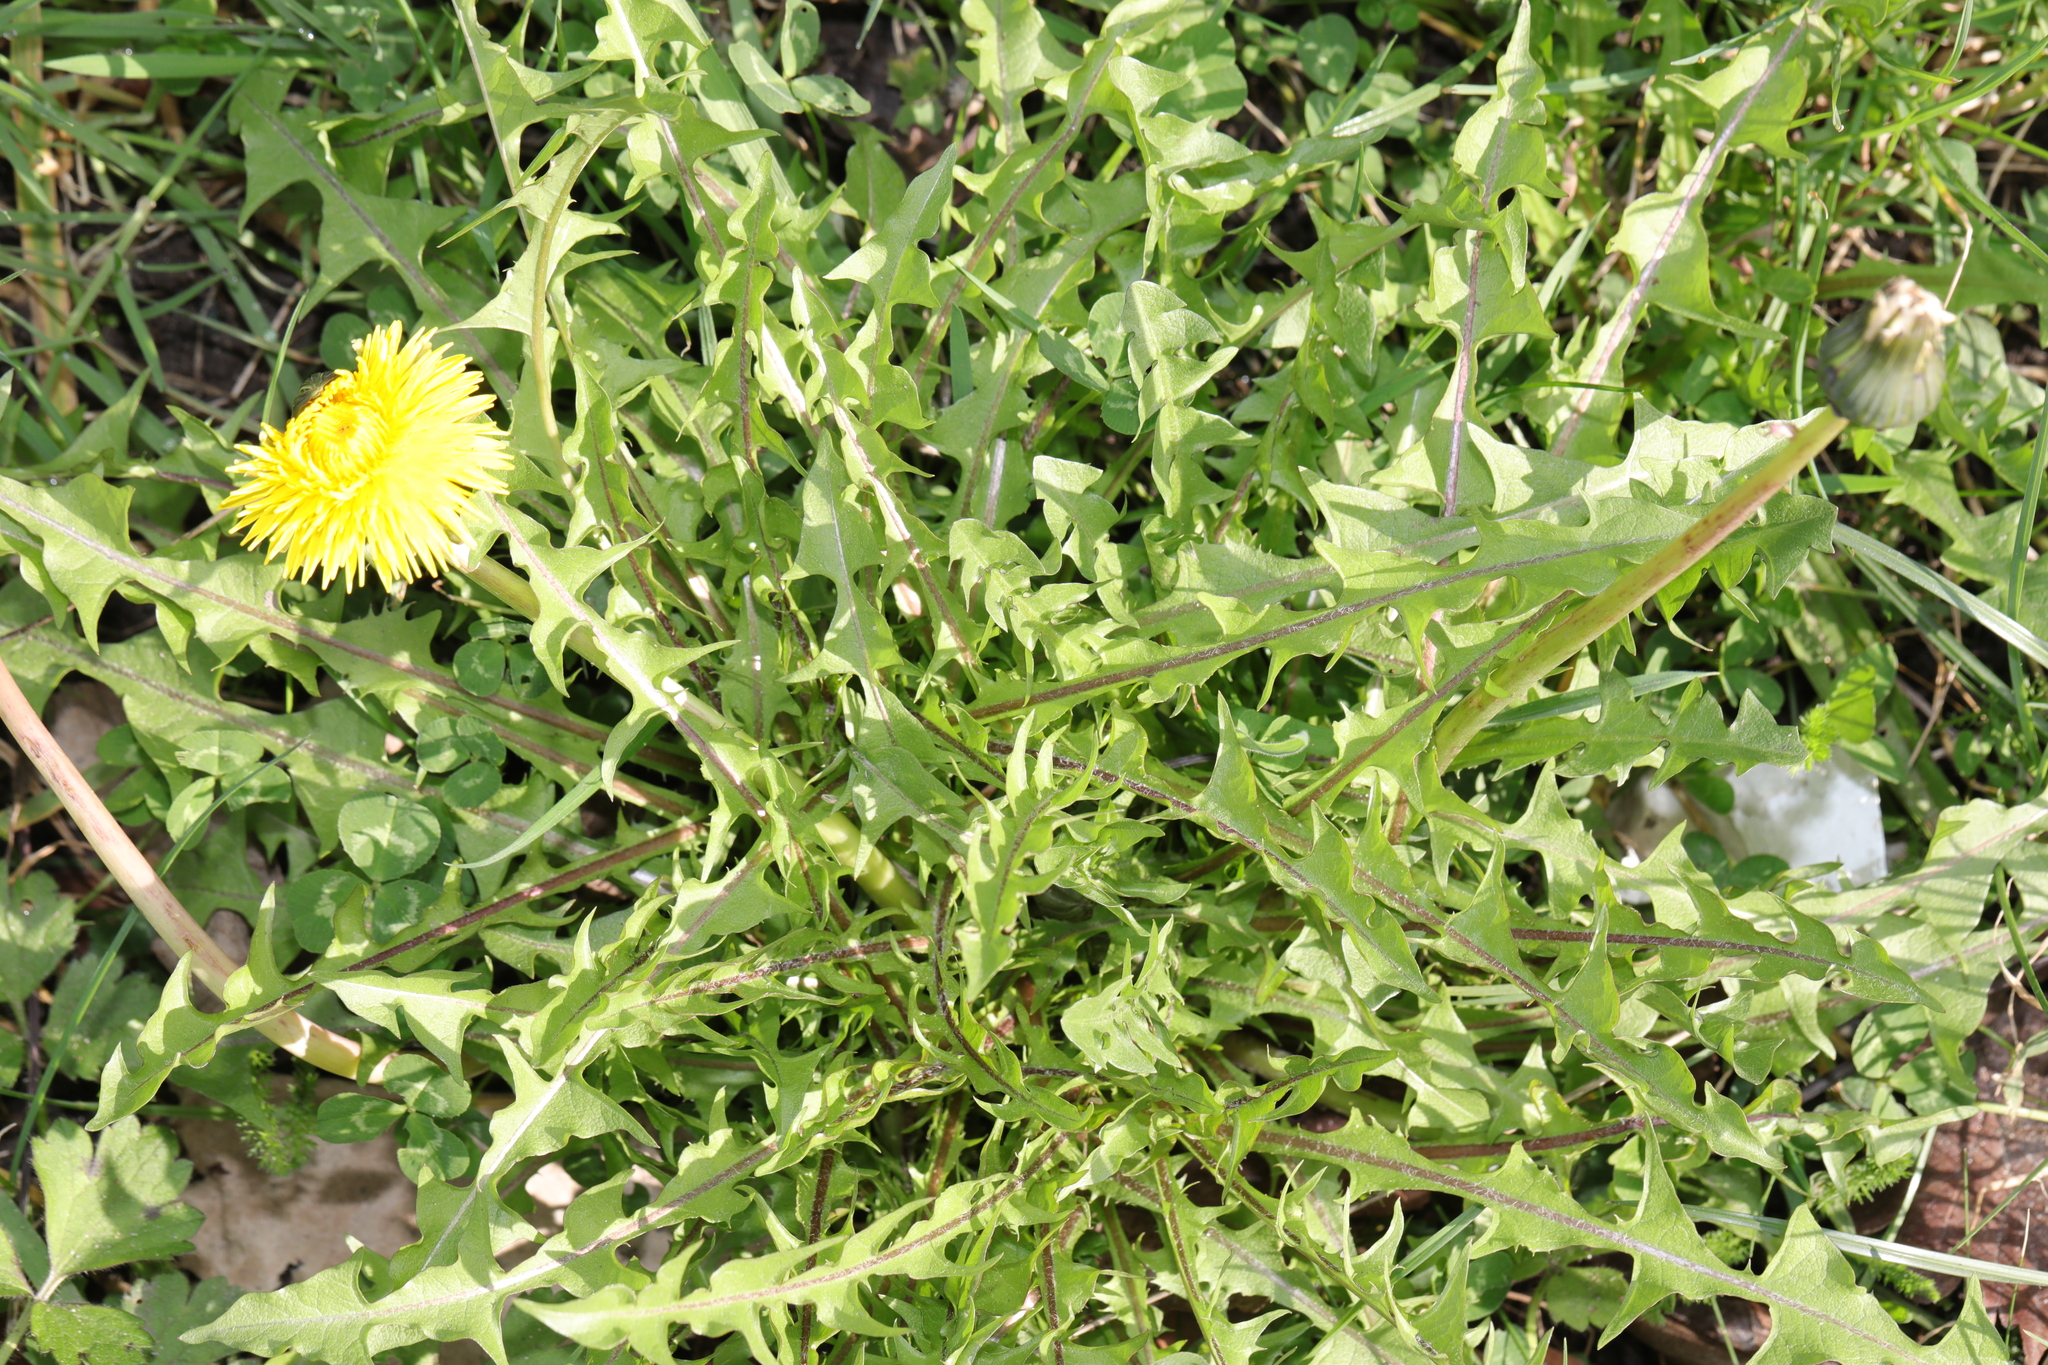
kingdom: Plantae
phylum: Tracheophyta
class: Magnoliopsida
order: Asterales
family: Asteraceae
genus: Taraxacum
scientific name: Taraxacum officinale
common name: Common dandelion
